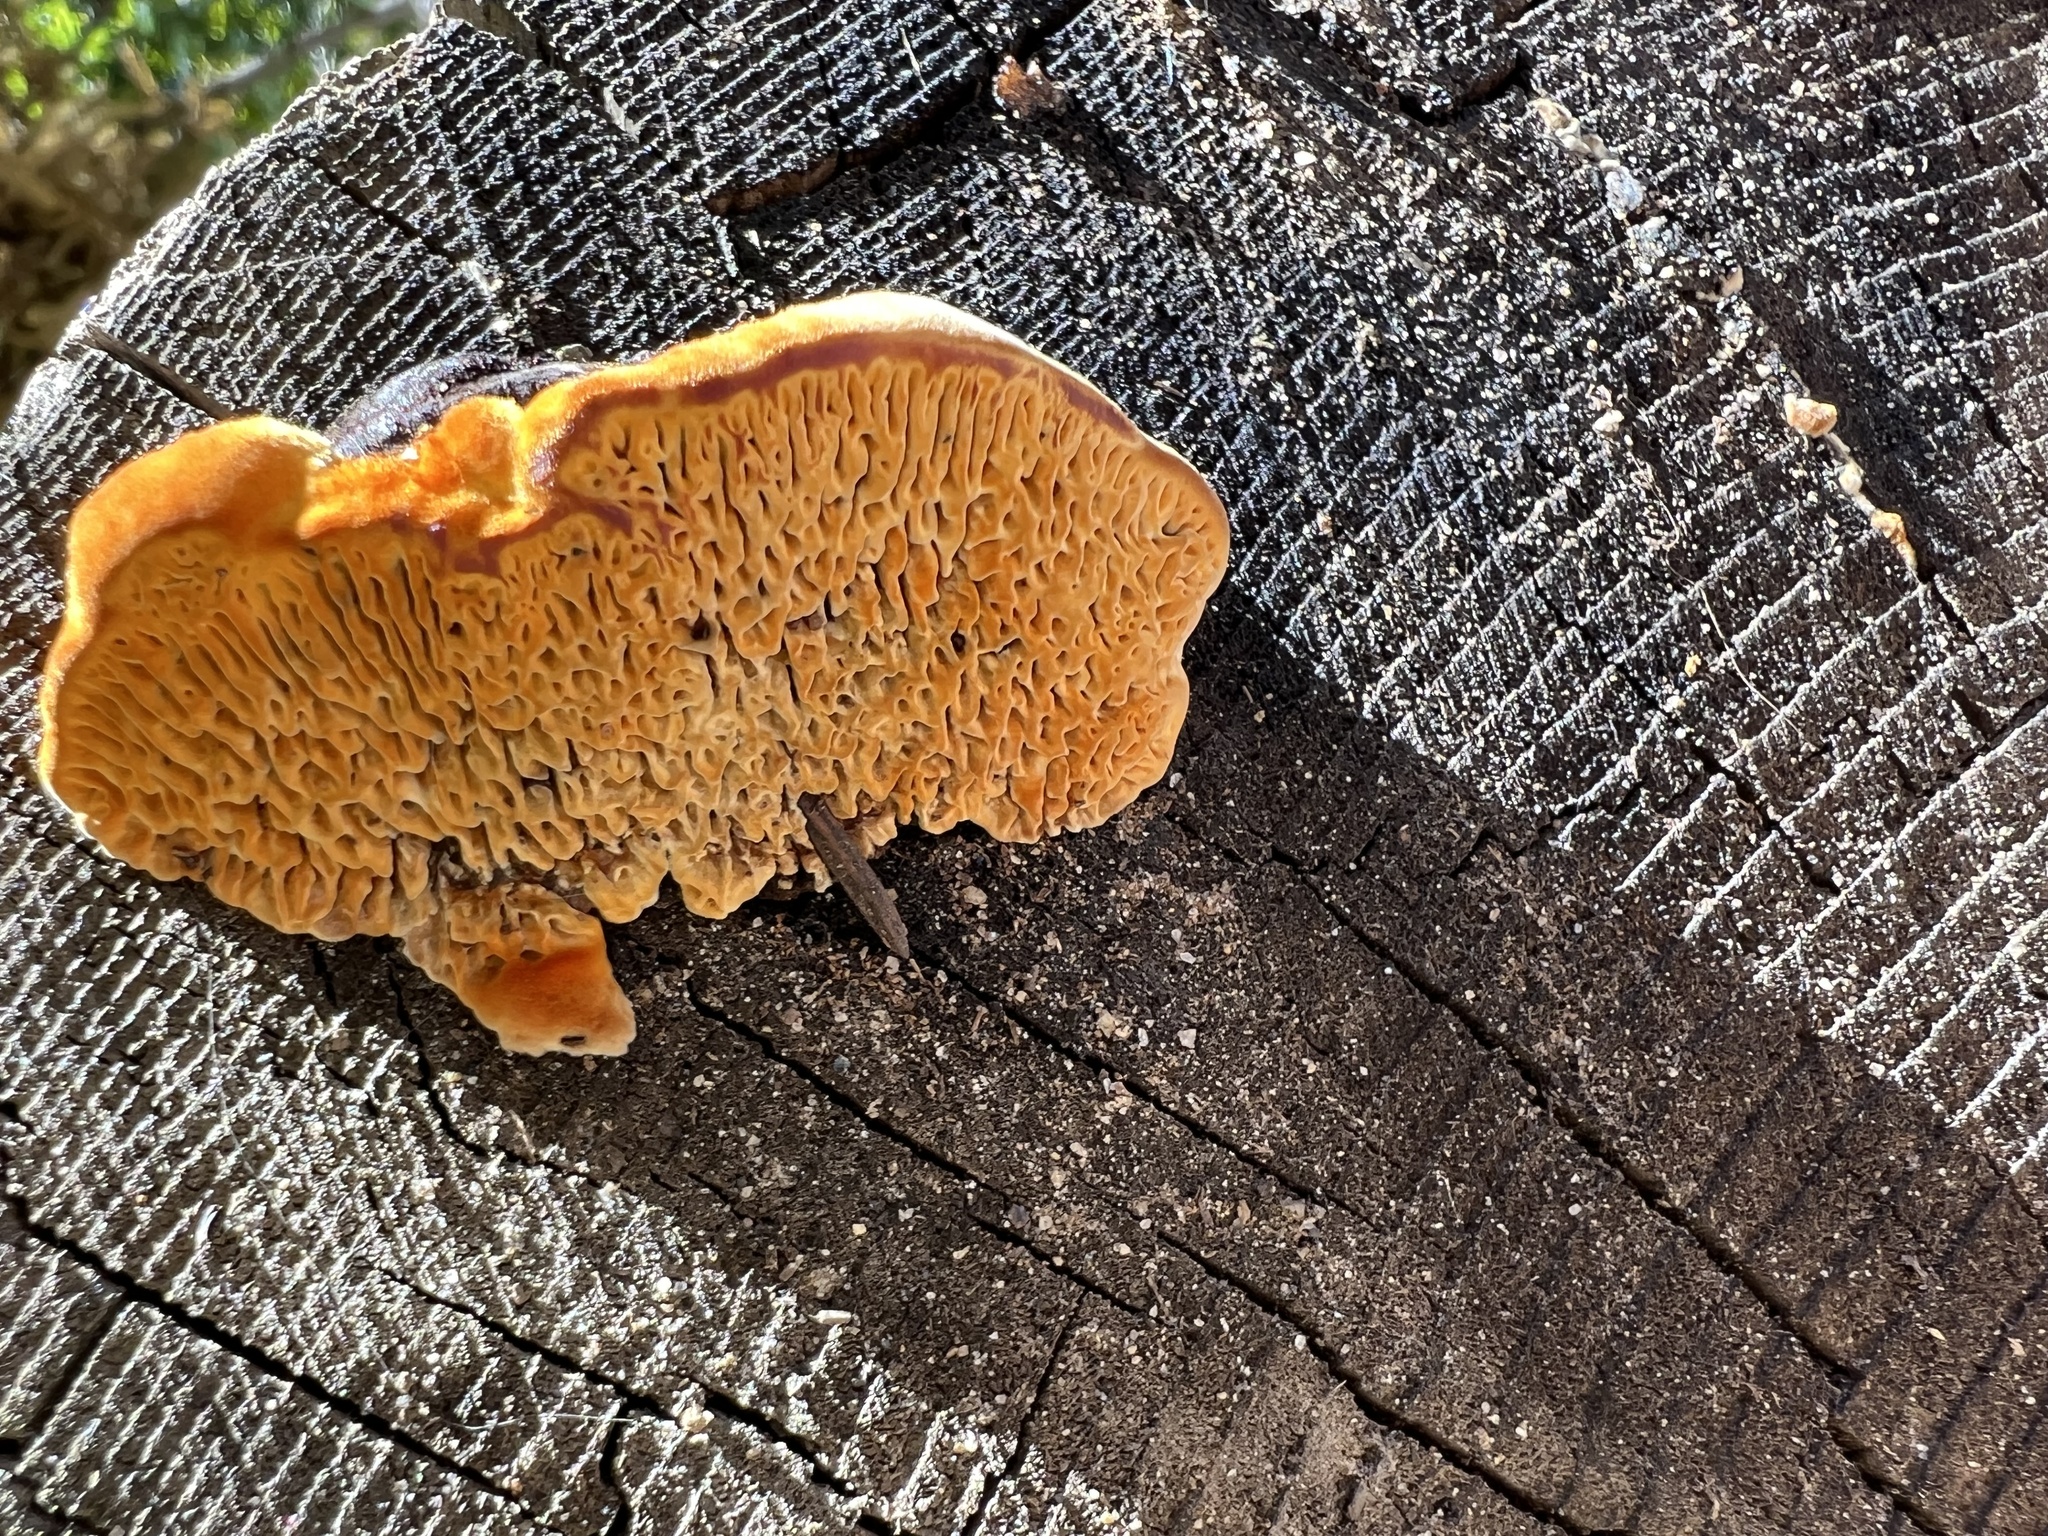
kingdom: Fungi
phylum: Basidiomycota
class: Agaricomycetes
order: Gloeophyllales
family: Gloeophyllaceae
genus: Gloeophyllum
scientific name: Gloeophyllum sepiarium
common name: Conifer mazegill
